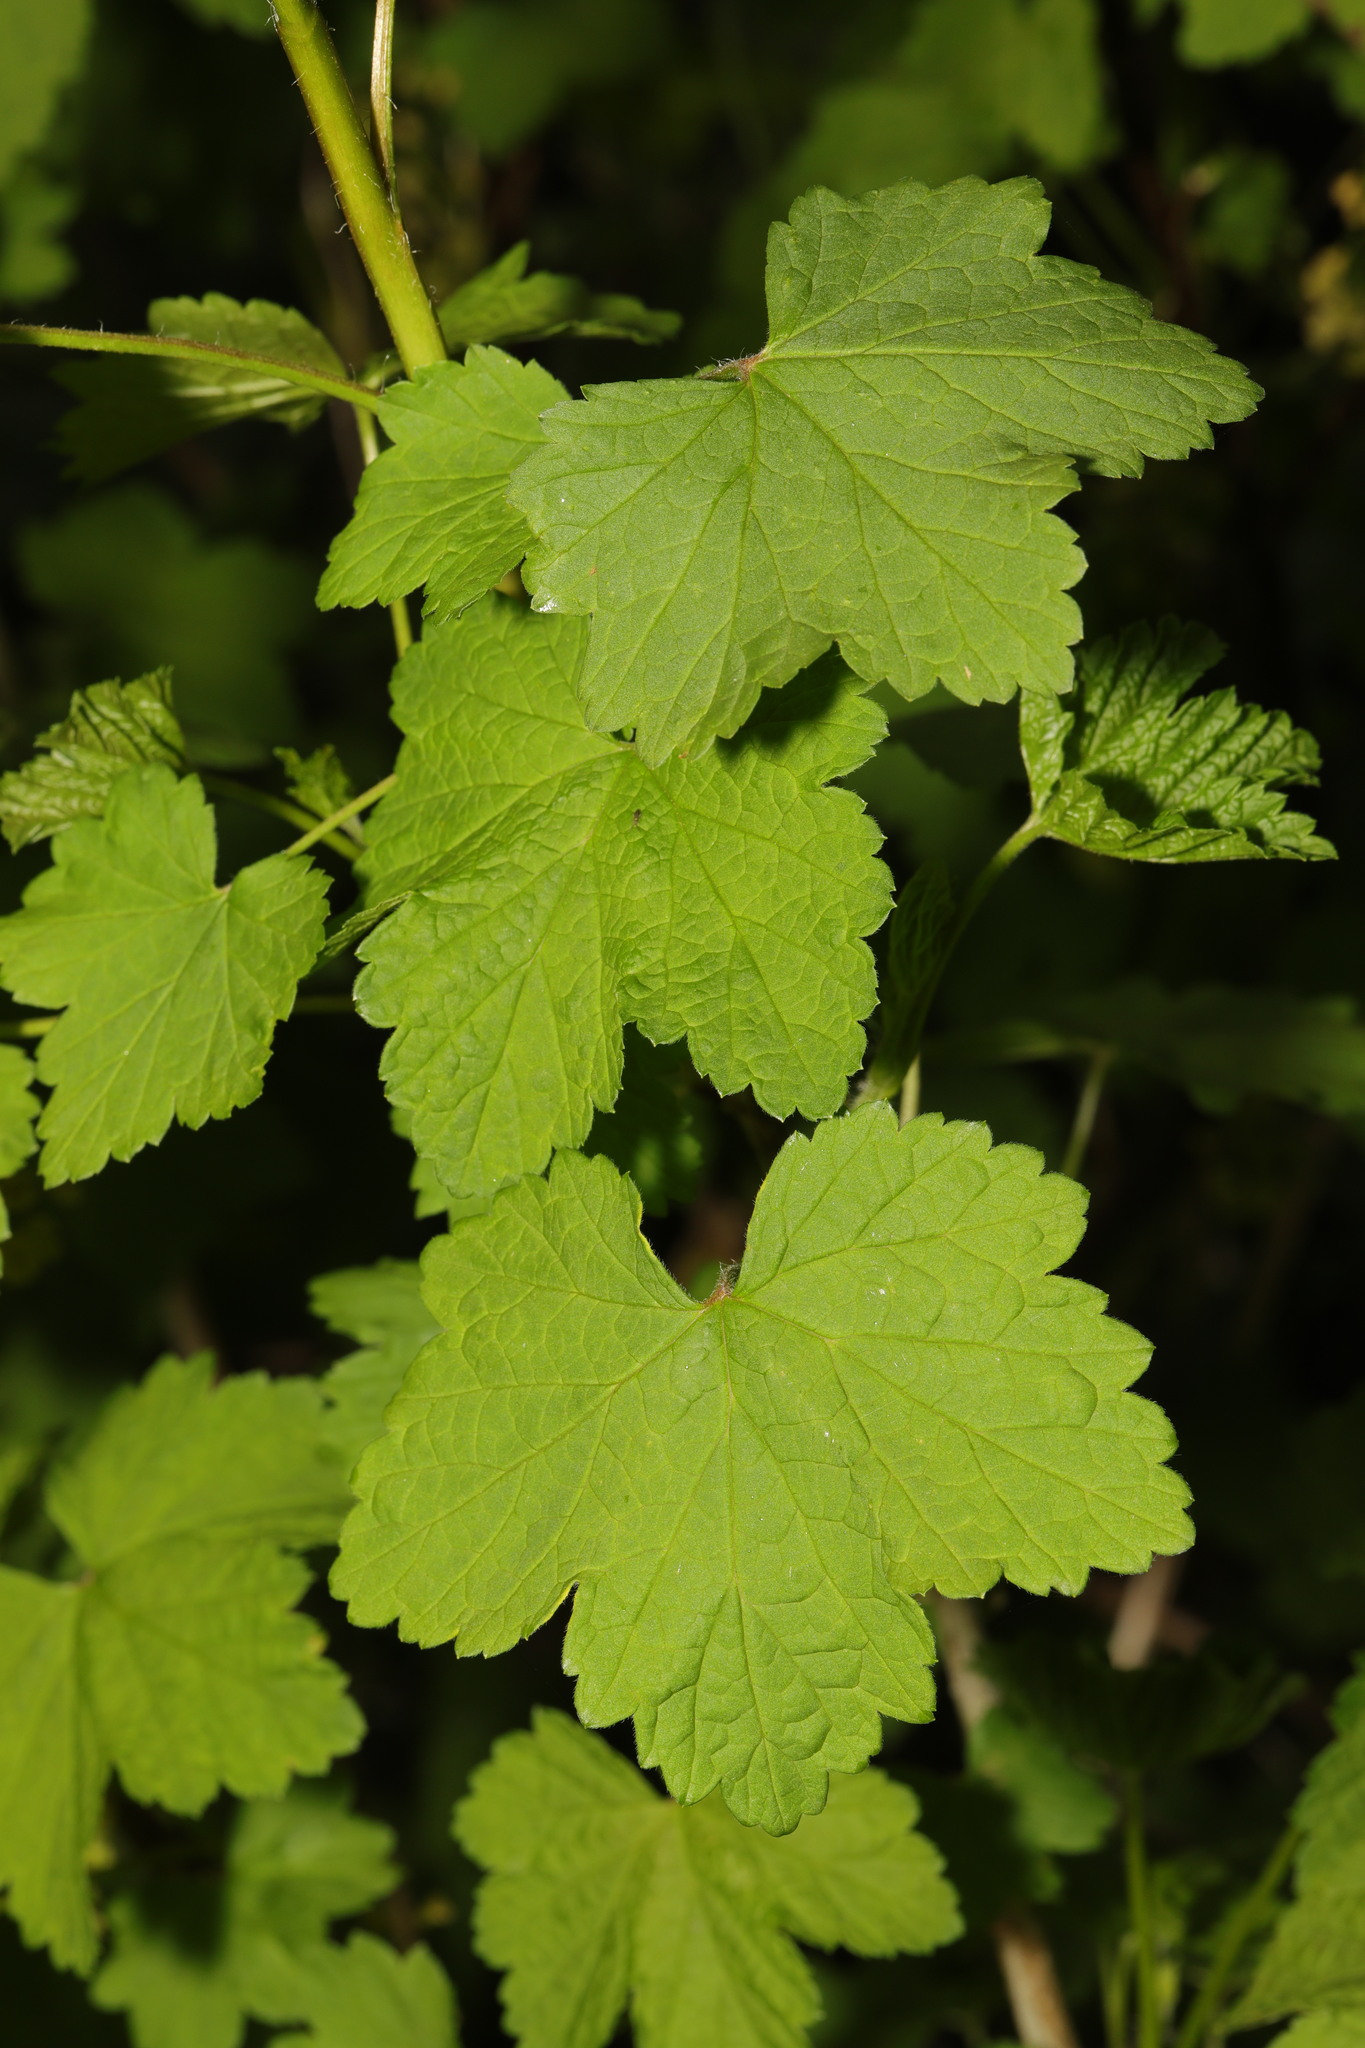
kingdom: Plantae
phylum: Tracheophyta
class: Magnoliopsida
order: Saxifragales
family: Grossulariaceae
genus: Ribes
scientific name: Ribes rubrum
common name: Red currant
